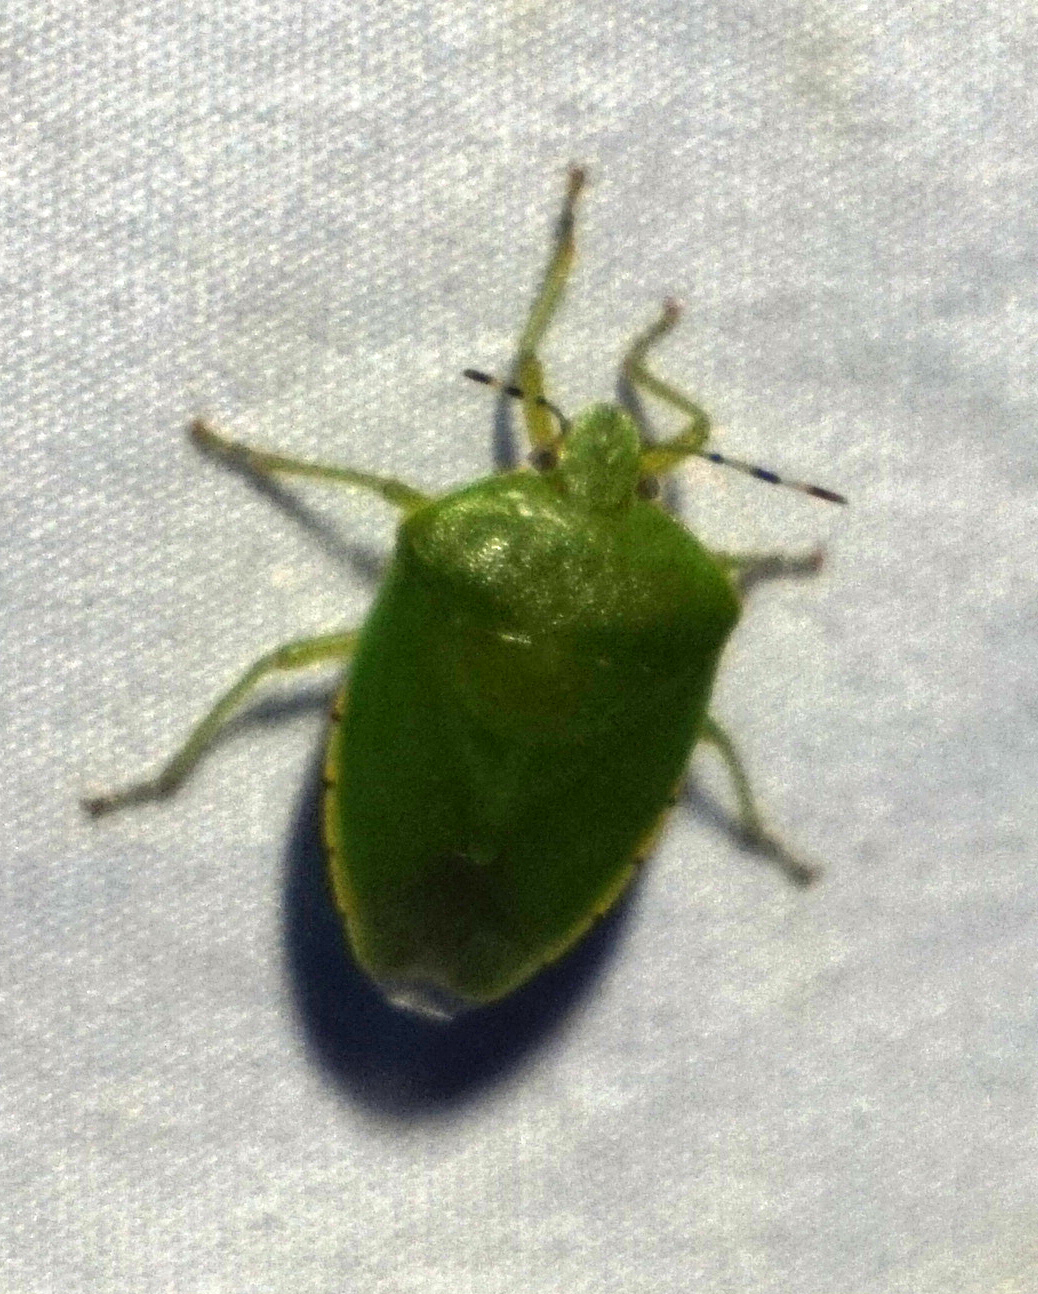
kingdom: Animalia
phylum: Arthropoda
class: Insecta
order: Hemiptera
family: Pentatomidae
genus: Chinavia
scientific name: Chinavia hilaris
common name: Green stink bug
